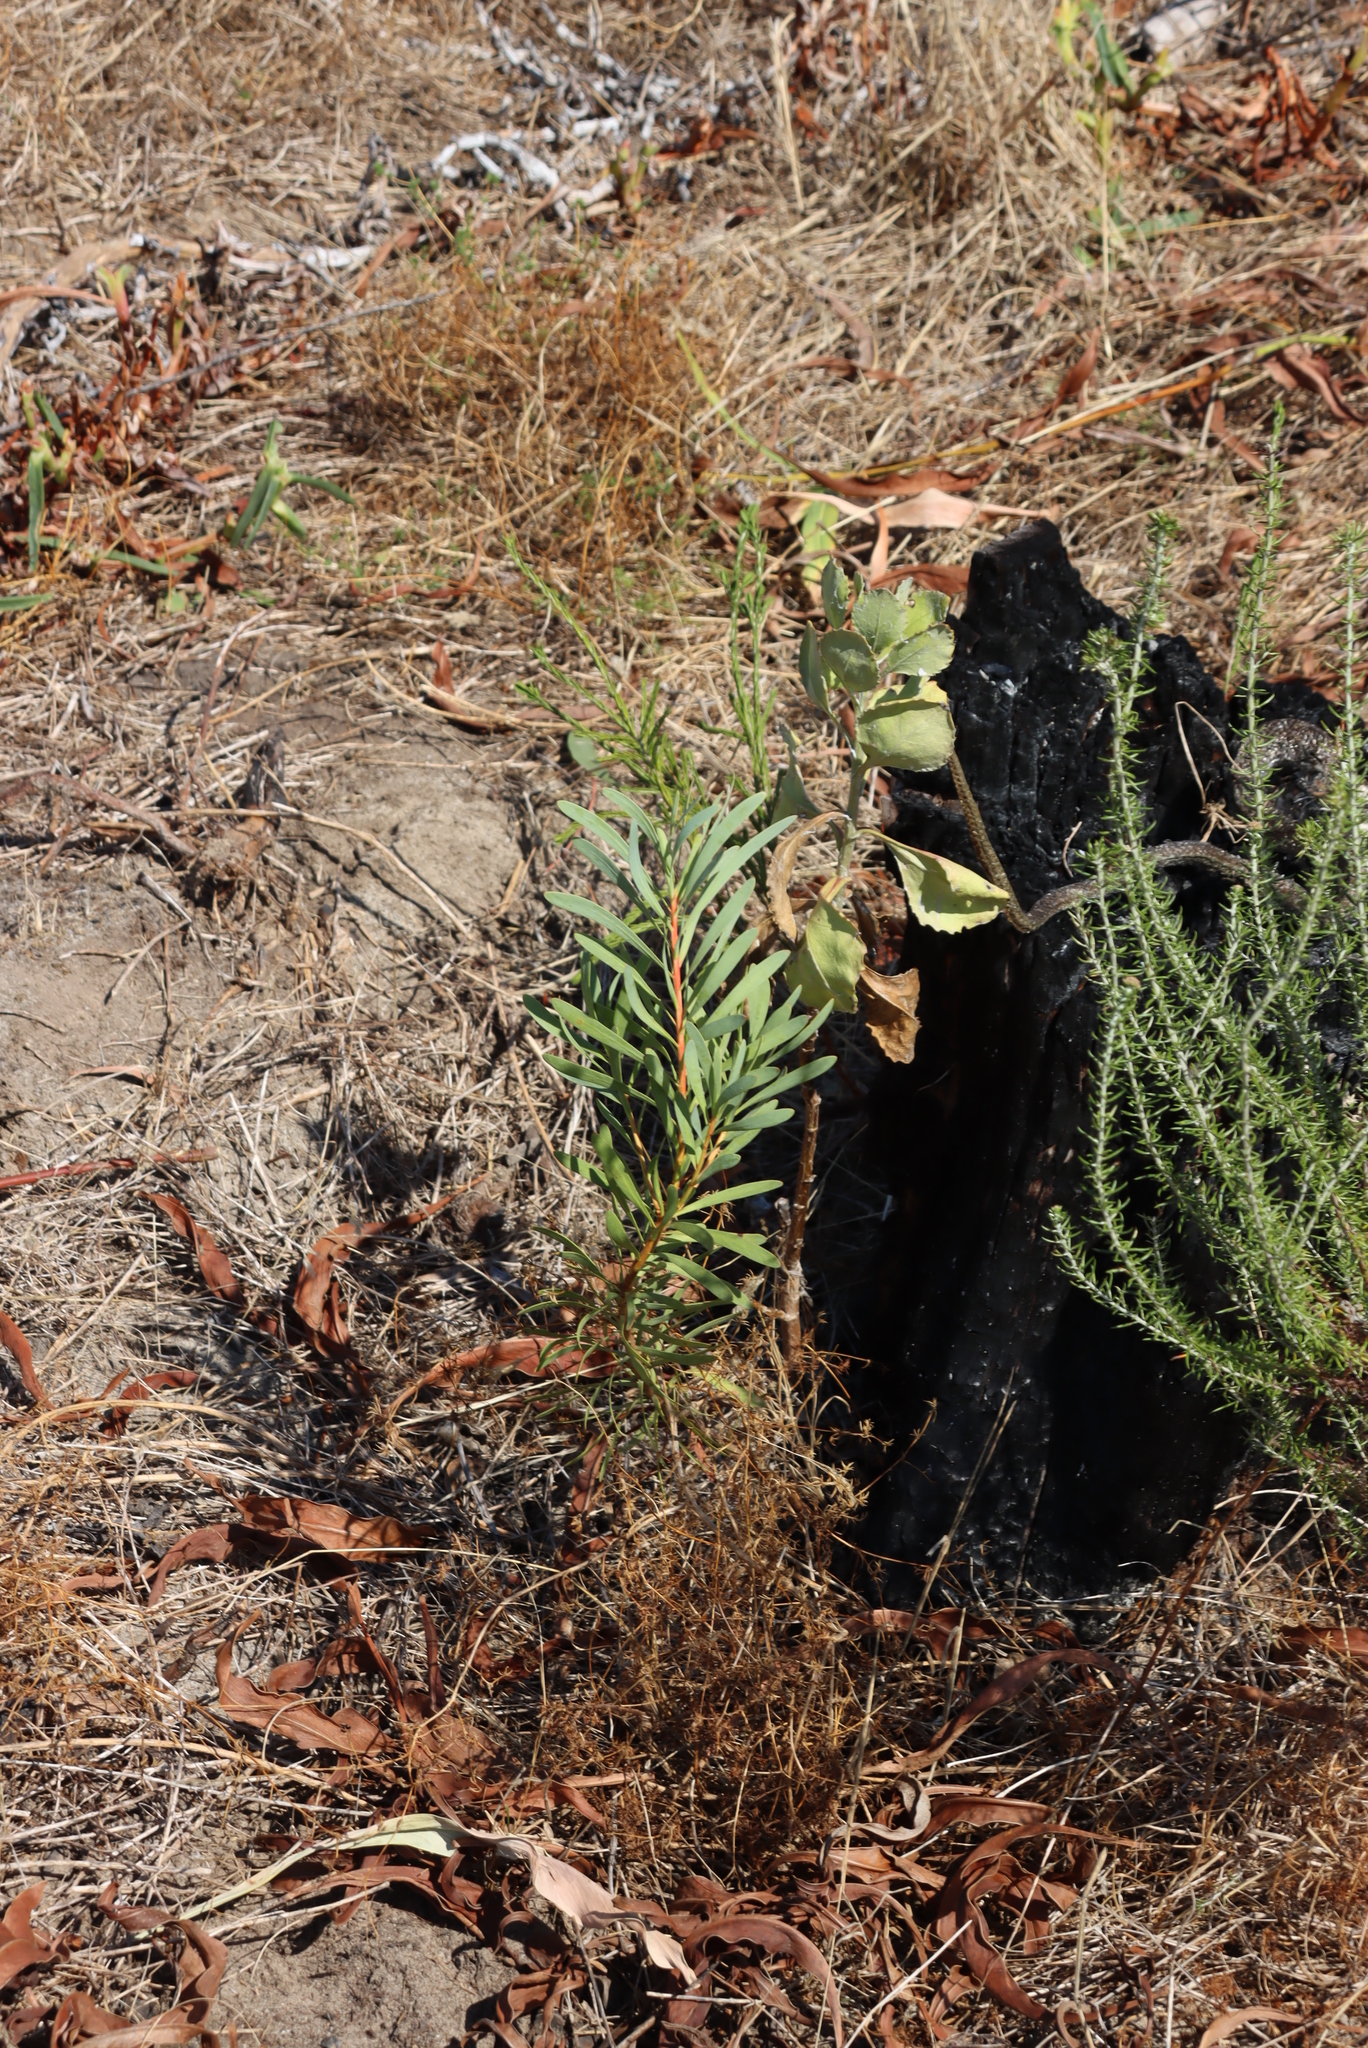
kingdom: Plantae
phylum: Tracheophyta
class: Magnoliopsida
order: Proteales
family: Proteaceae
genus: Protea
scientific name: Protea repens
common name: Sugarbush
